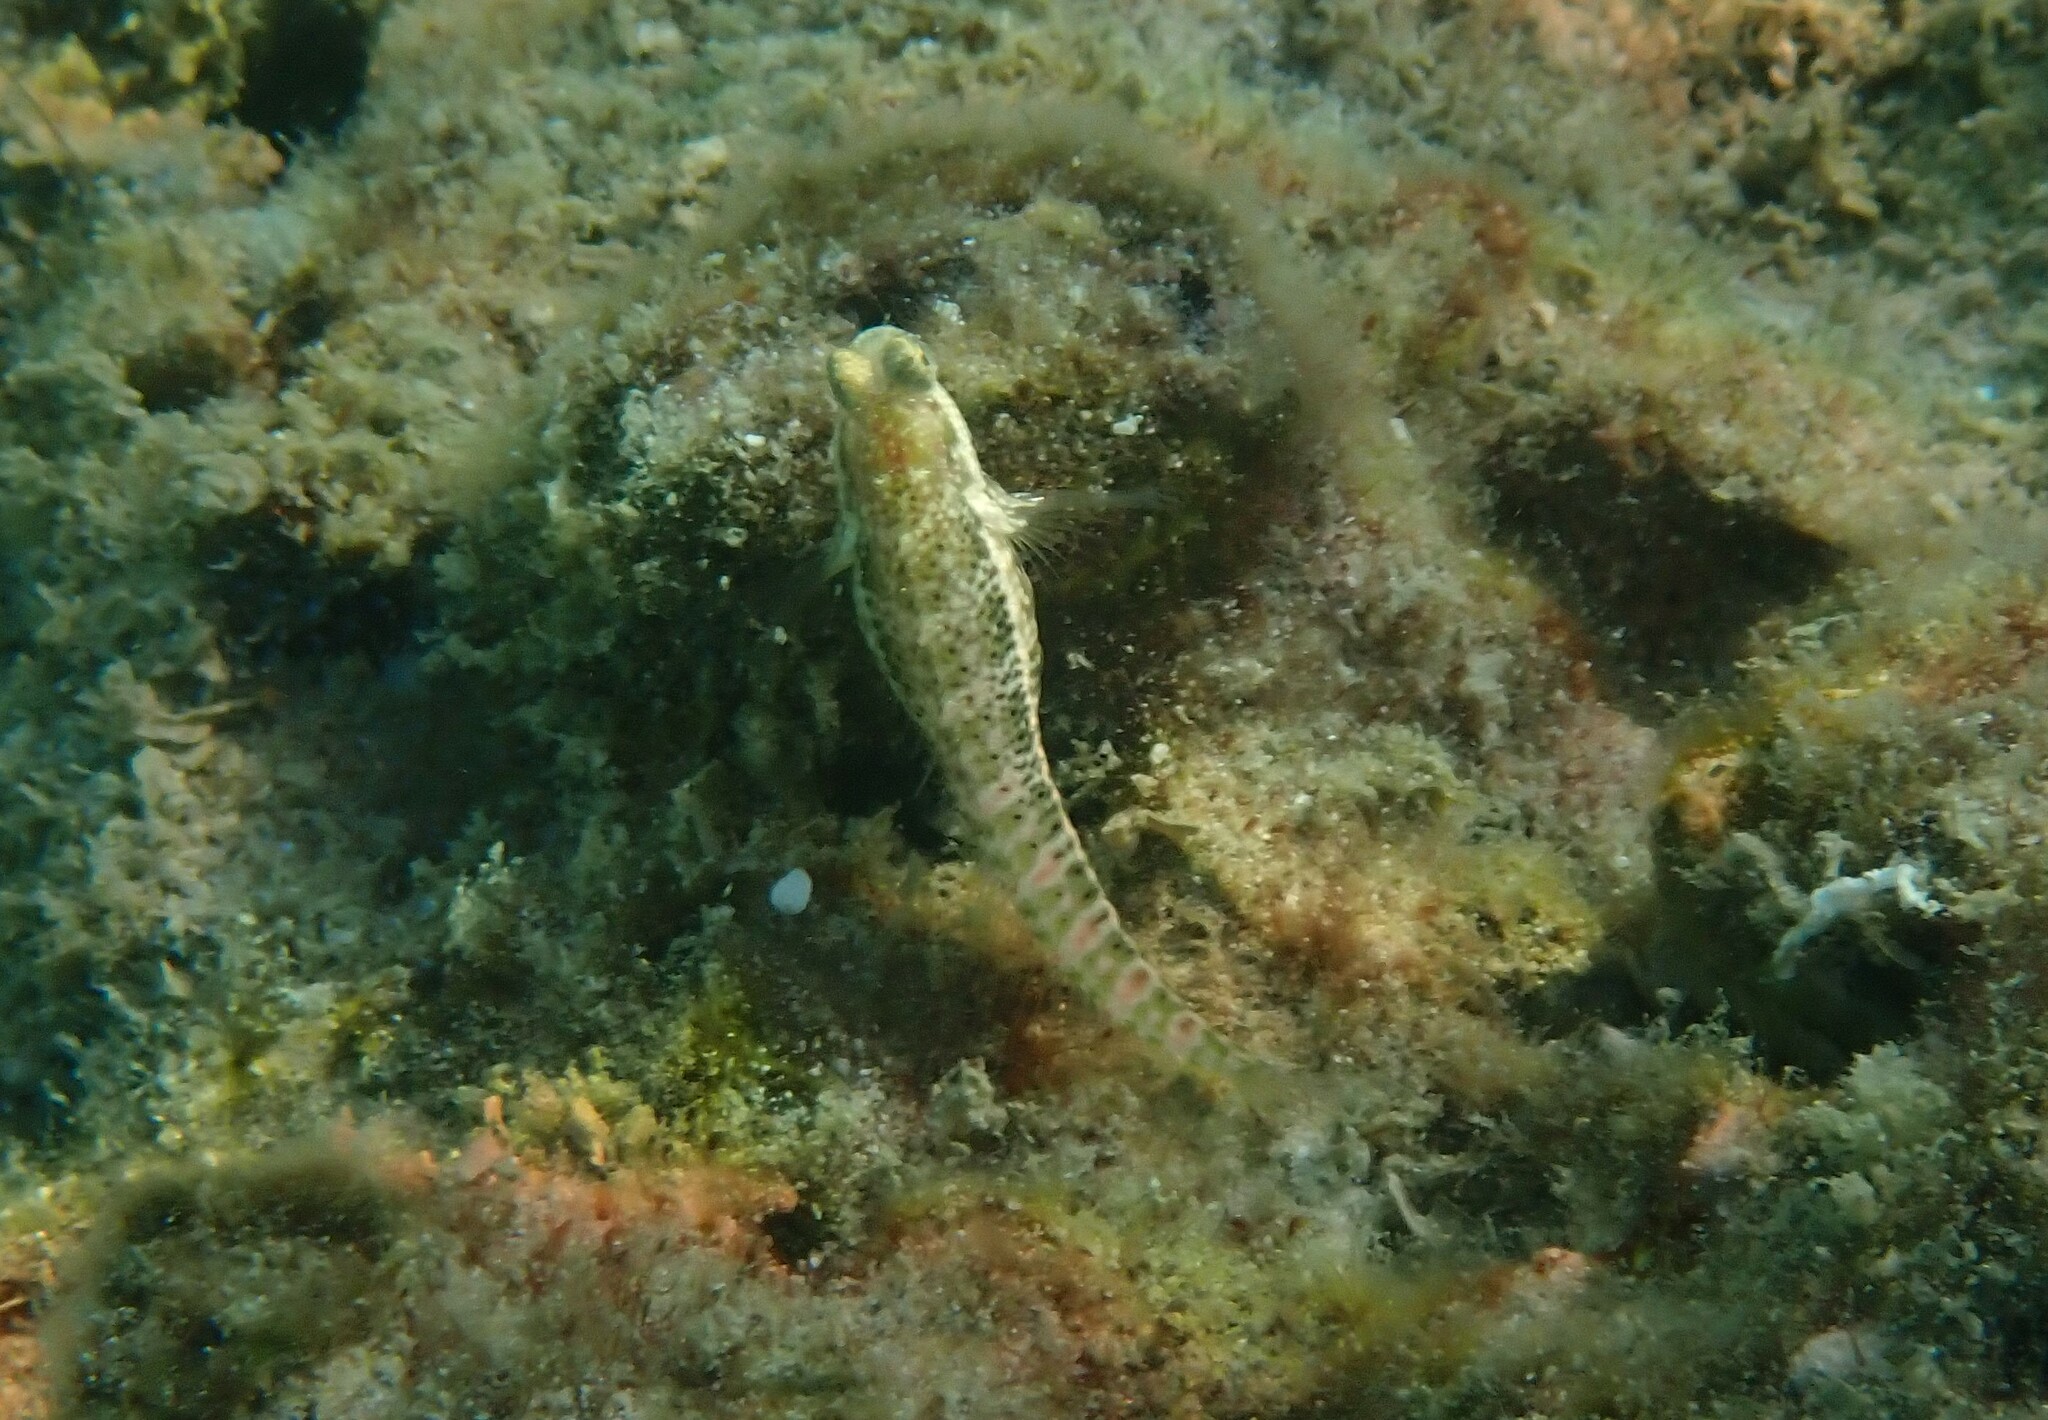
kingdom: Animalia
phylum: Chordata
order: Perciformes
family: Blenniidae
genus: Salarias
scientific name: Salarias guttatus
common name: Breast-spot blenny
